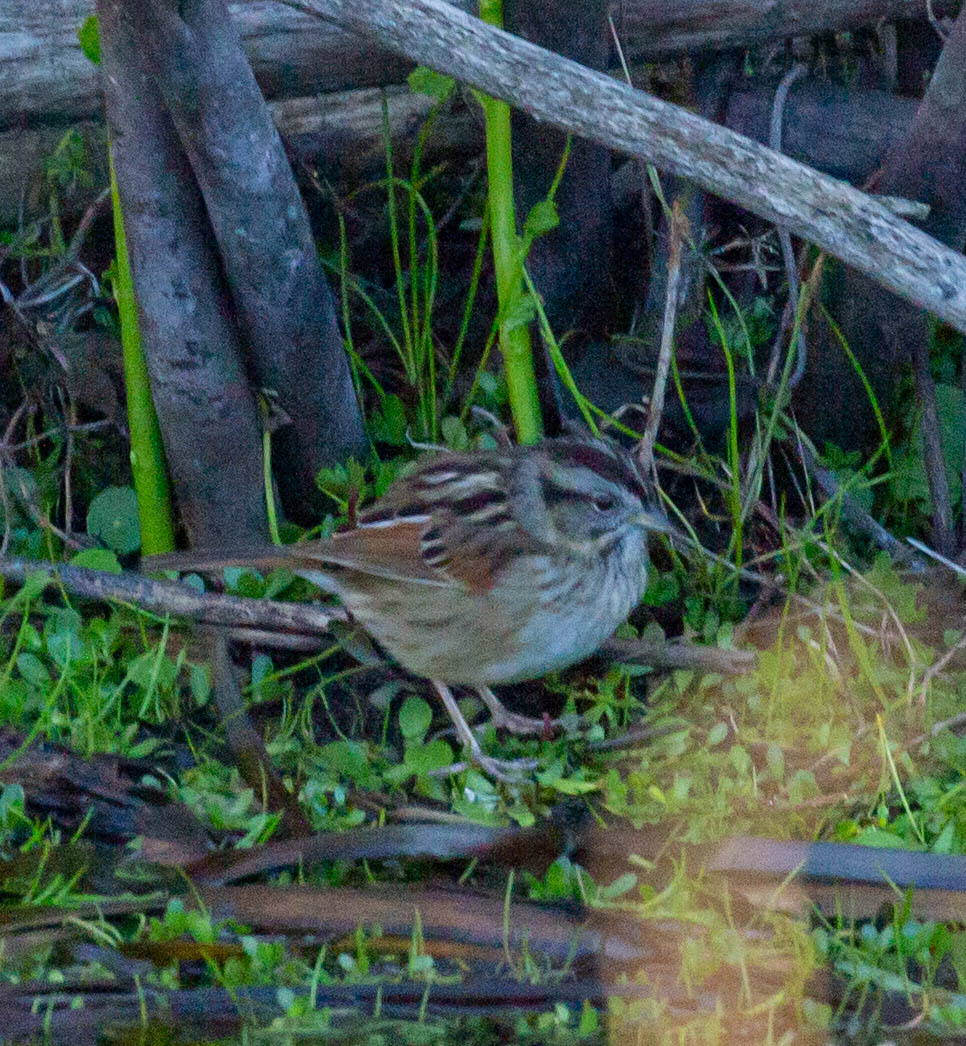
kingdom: Animalia
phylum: Chordata
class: Aves
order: Passeriformes
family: Passerellidae
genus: Melospiza
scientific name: Melospiza georgiana
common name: Swamp sparrow
